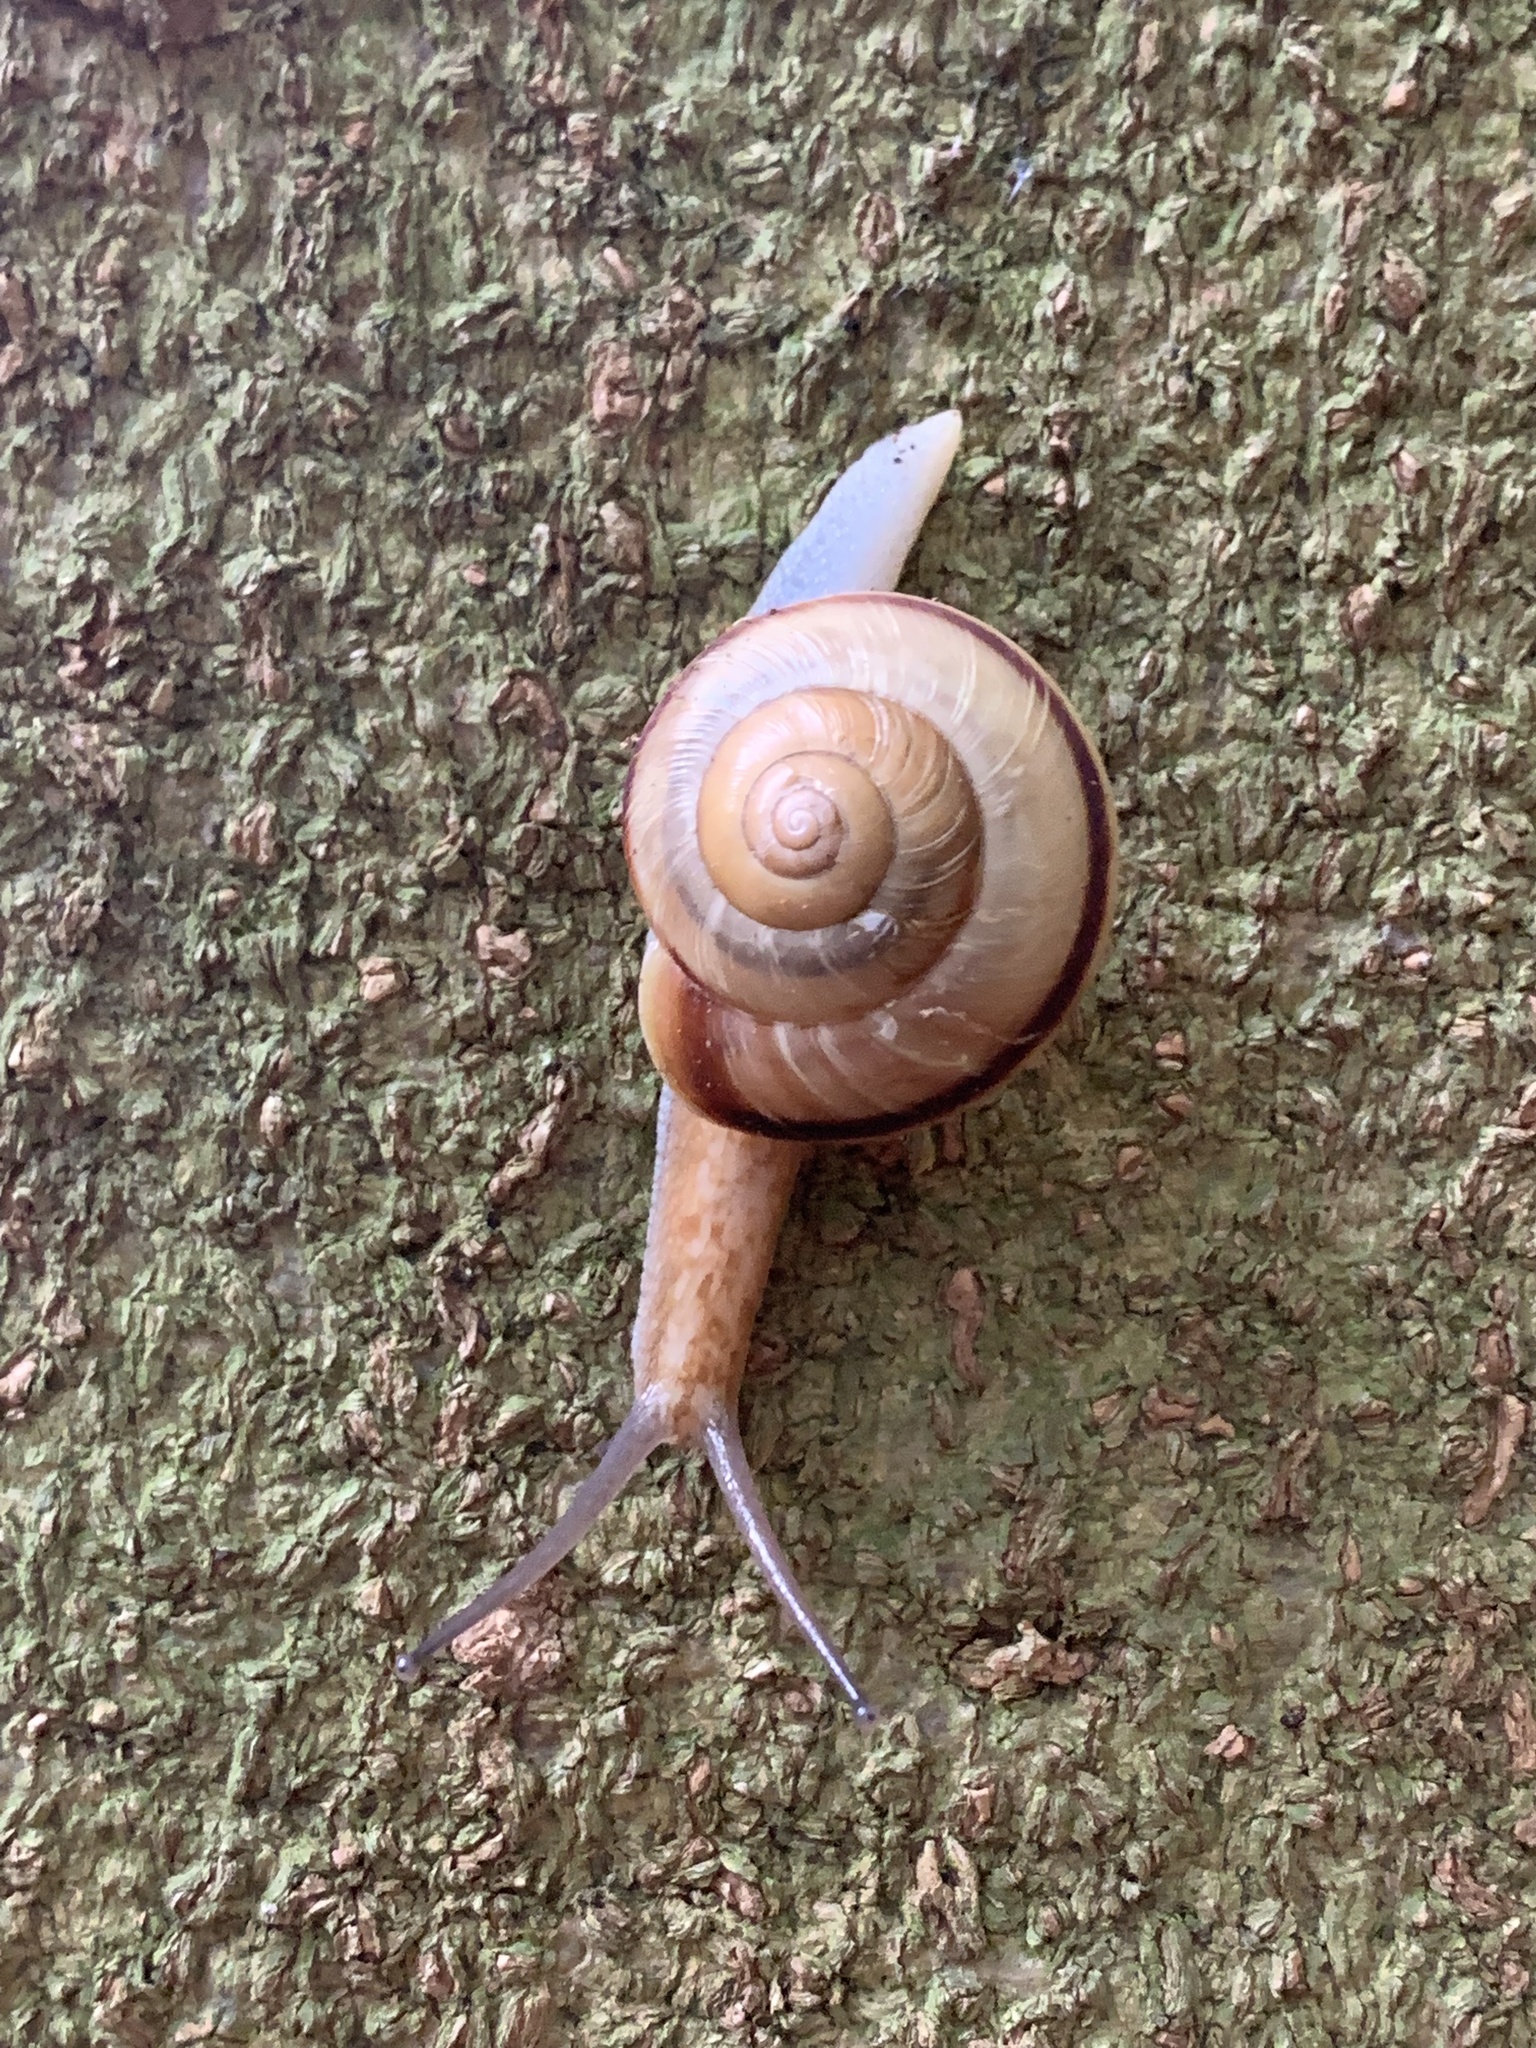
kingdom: Animalia
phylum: Mollusca
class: Gastropoda
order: Stylommatophora
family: Camaenidae
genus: Euhadra
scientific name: Euhadra subnimbosa
